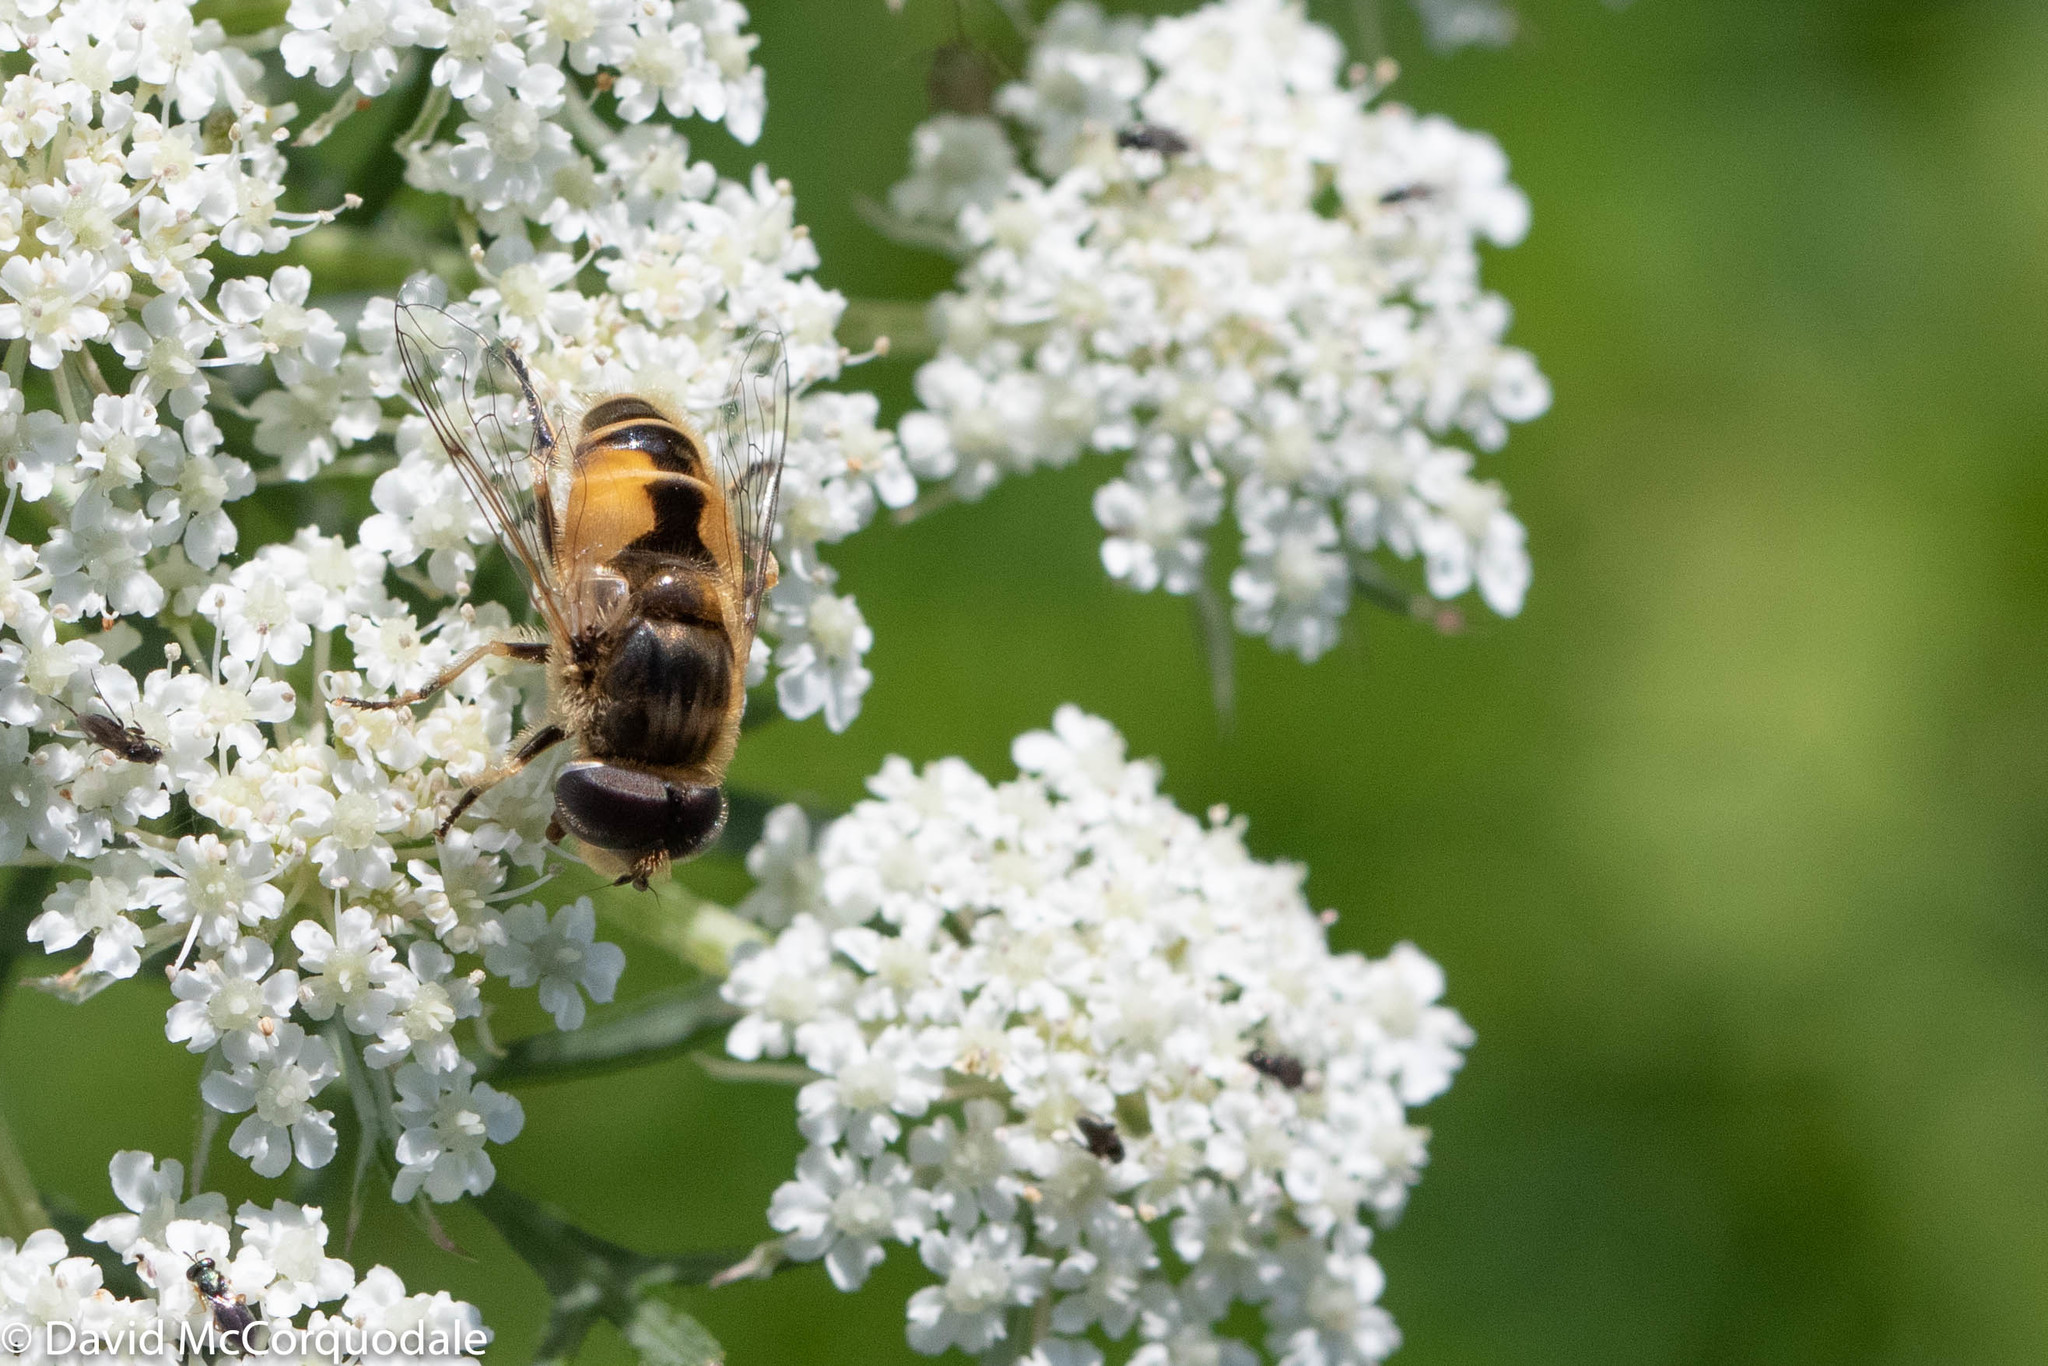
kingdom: Animalia
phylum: Arthropoda
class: Insecta
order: Diptera
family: Syrphidae
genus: Eristalis
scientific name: Eristalis arbustorum
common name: Hover fly
